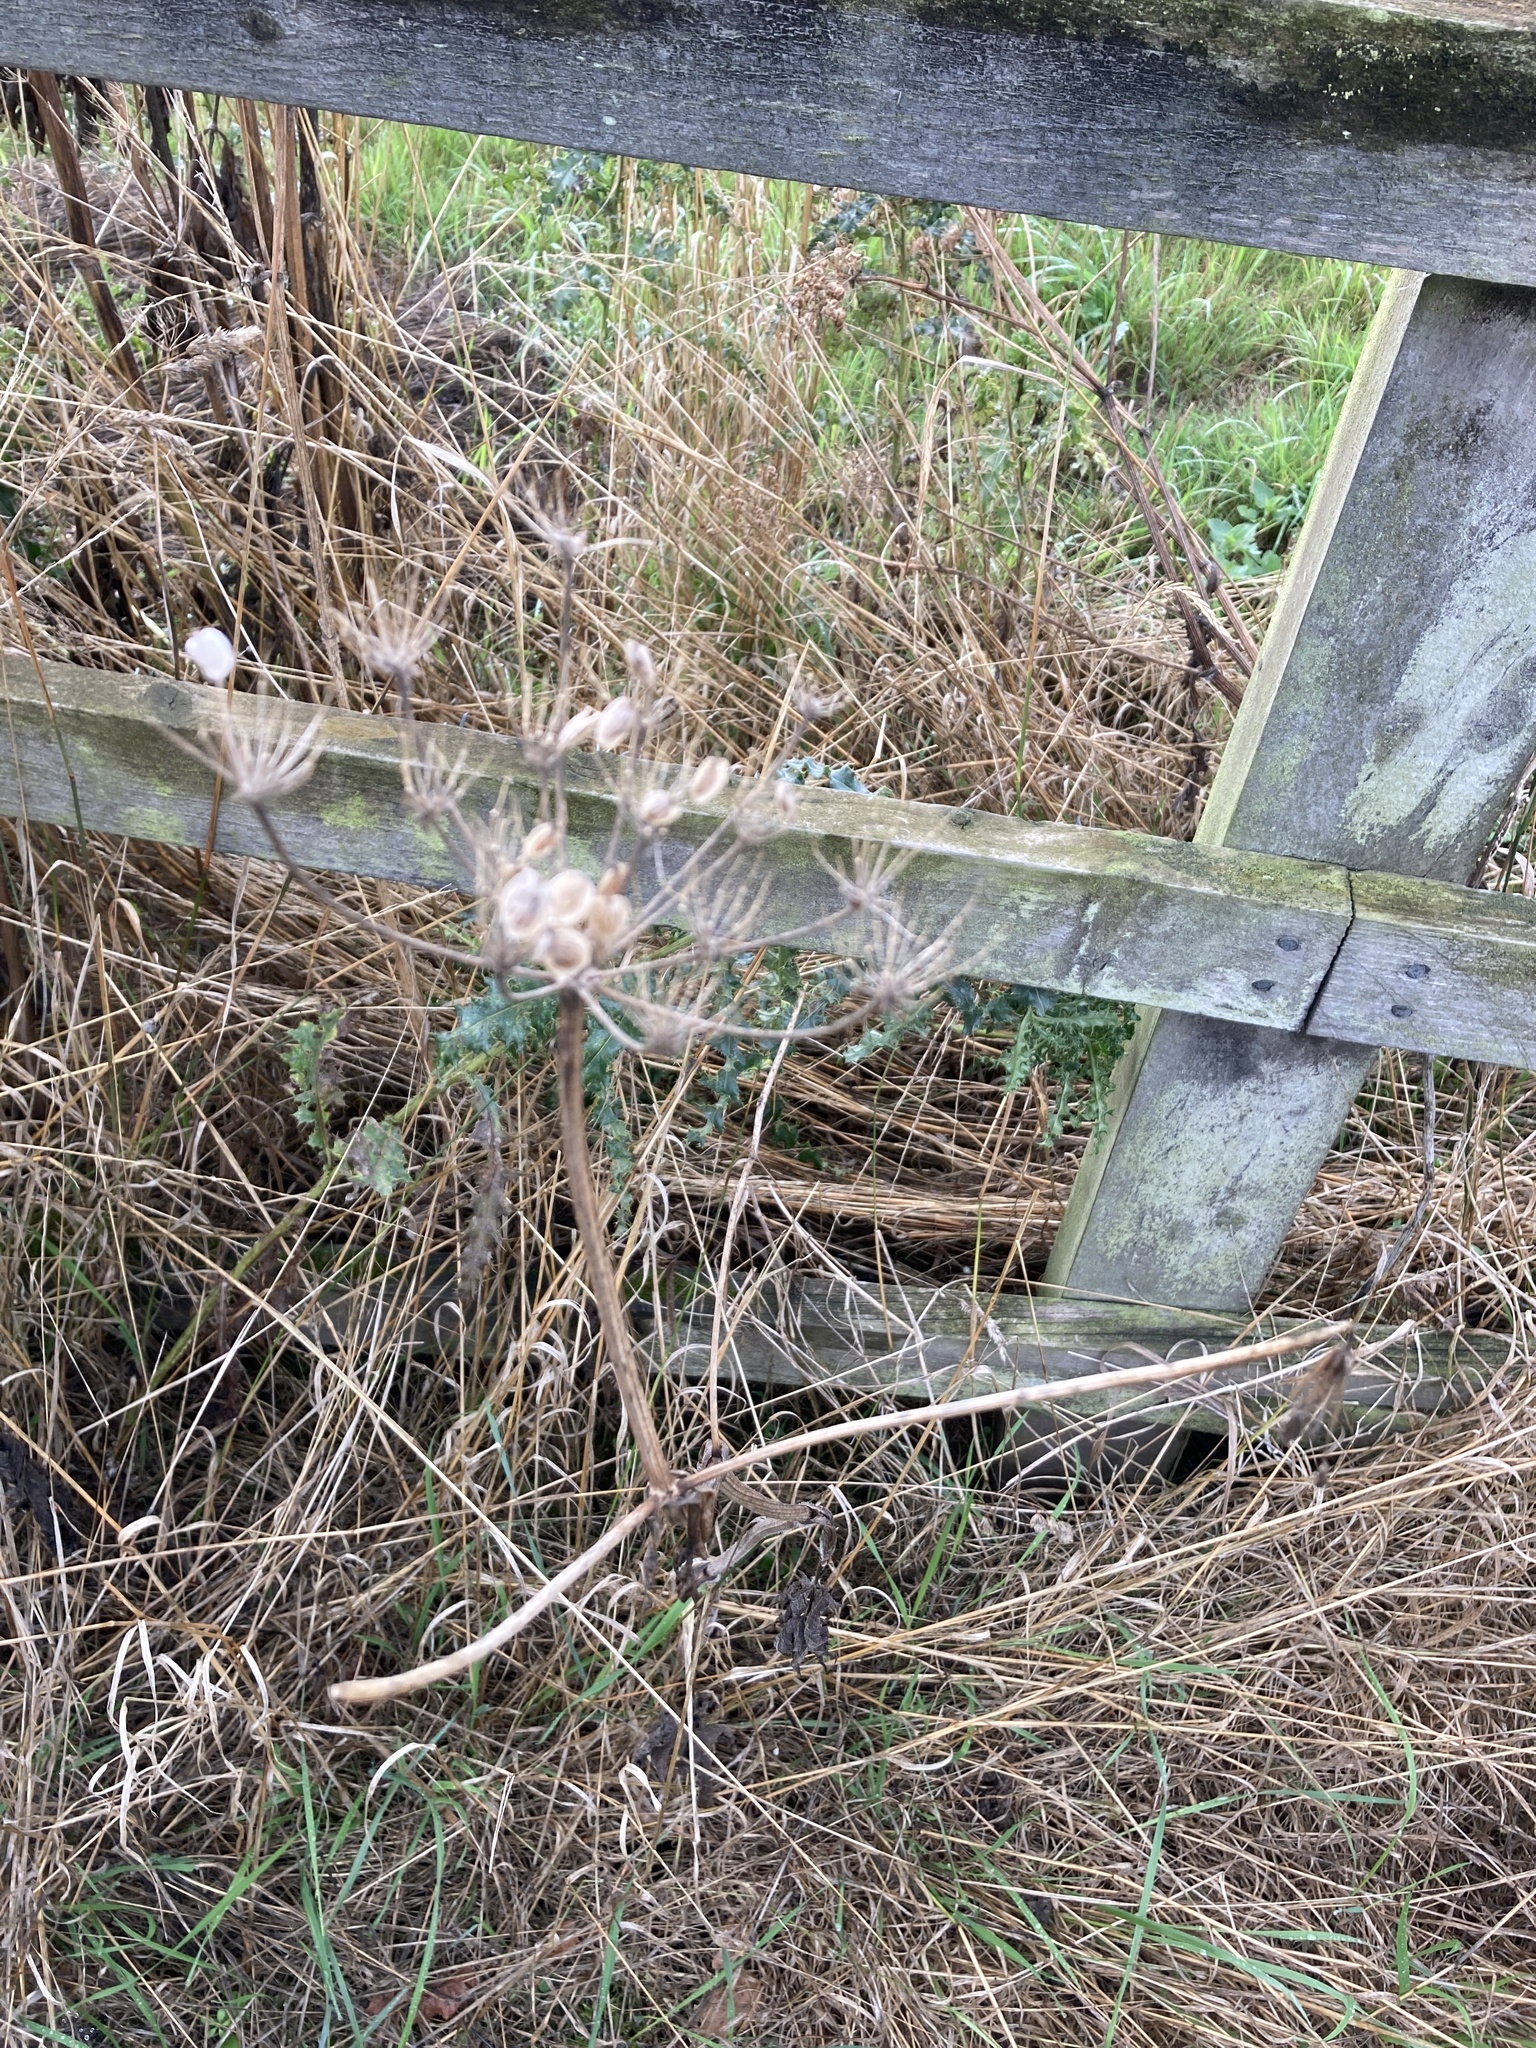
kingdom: Plantae
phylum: Tracheophyta
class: Magnoliopsida
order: Apiales
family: Apiaceae
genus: Heracleum
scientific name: Heracleum sphondylium
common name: Hogweed
